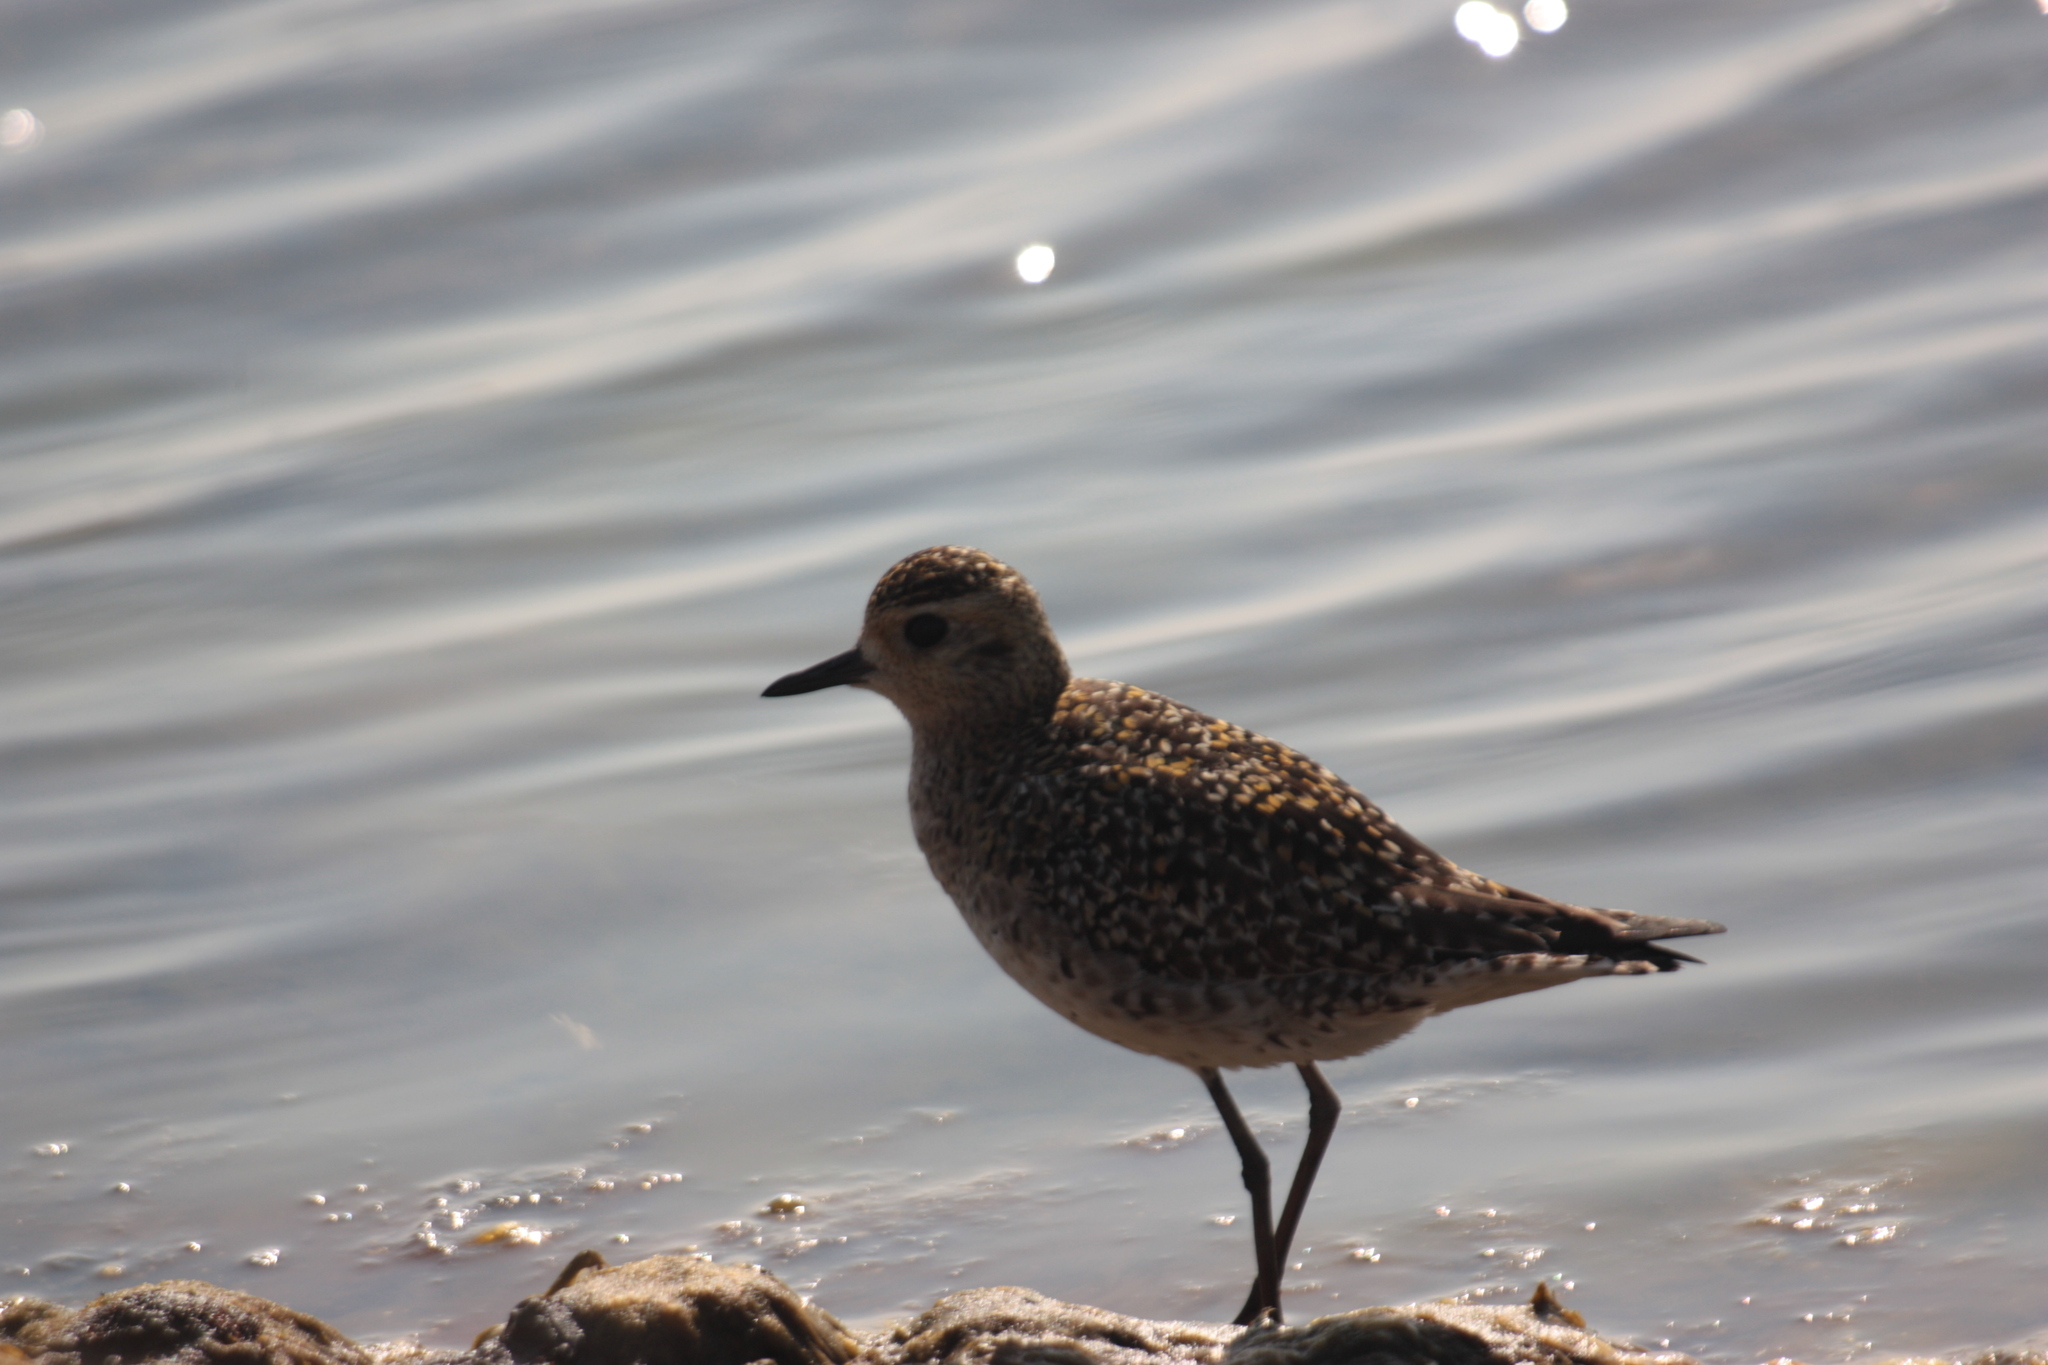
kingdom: Animalia
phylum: Chordata
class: Aves
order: Charadriiformes
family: Charadriidae
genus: Pluvialis
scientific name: Pluvialis fulva
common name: Pacific golden plover
